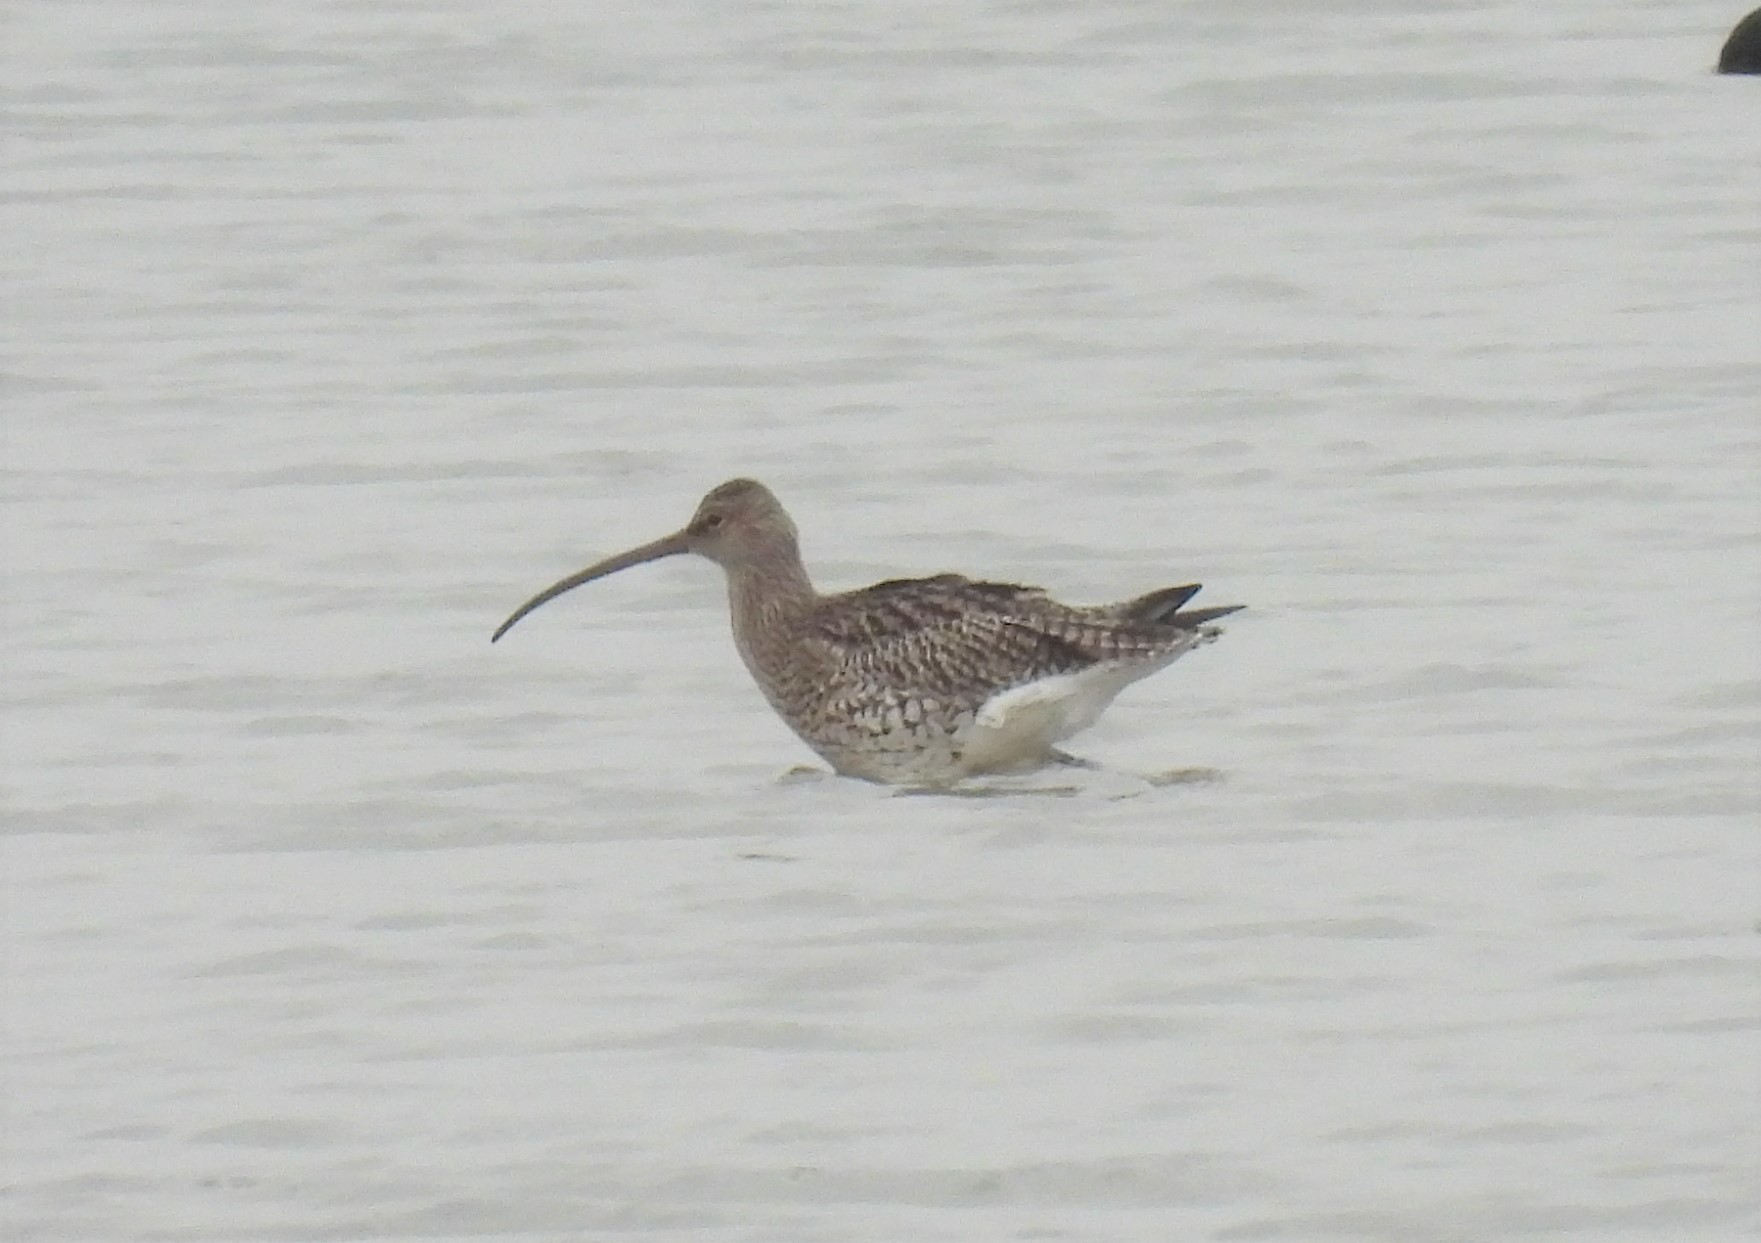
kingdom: Animalia
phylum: Chordata
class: Aves
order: Charadriiformes
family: Scolopacidae
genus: Numenius
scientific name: Numenius arquata
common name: Eurasian curlew
